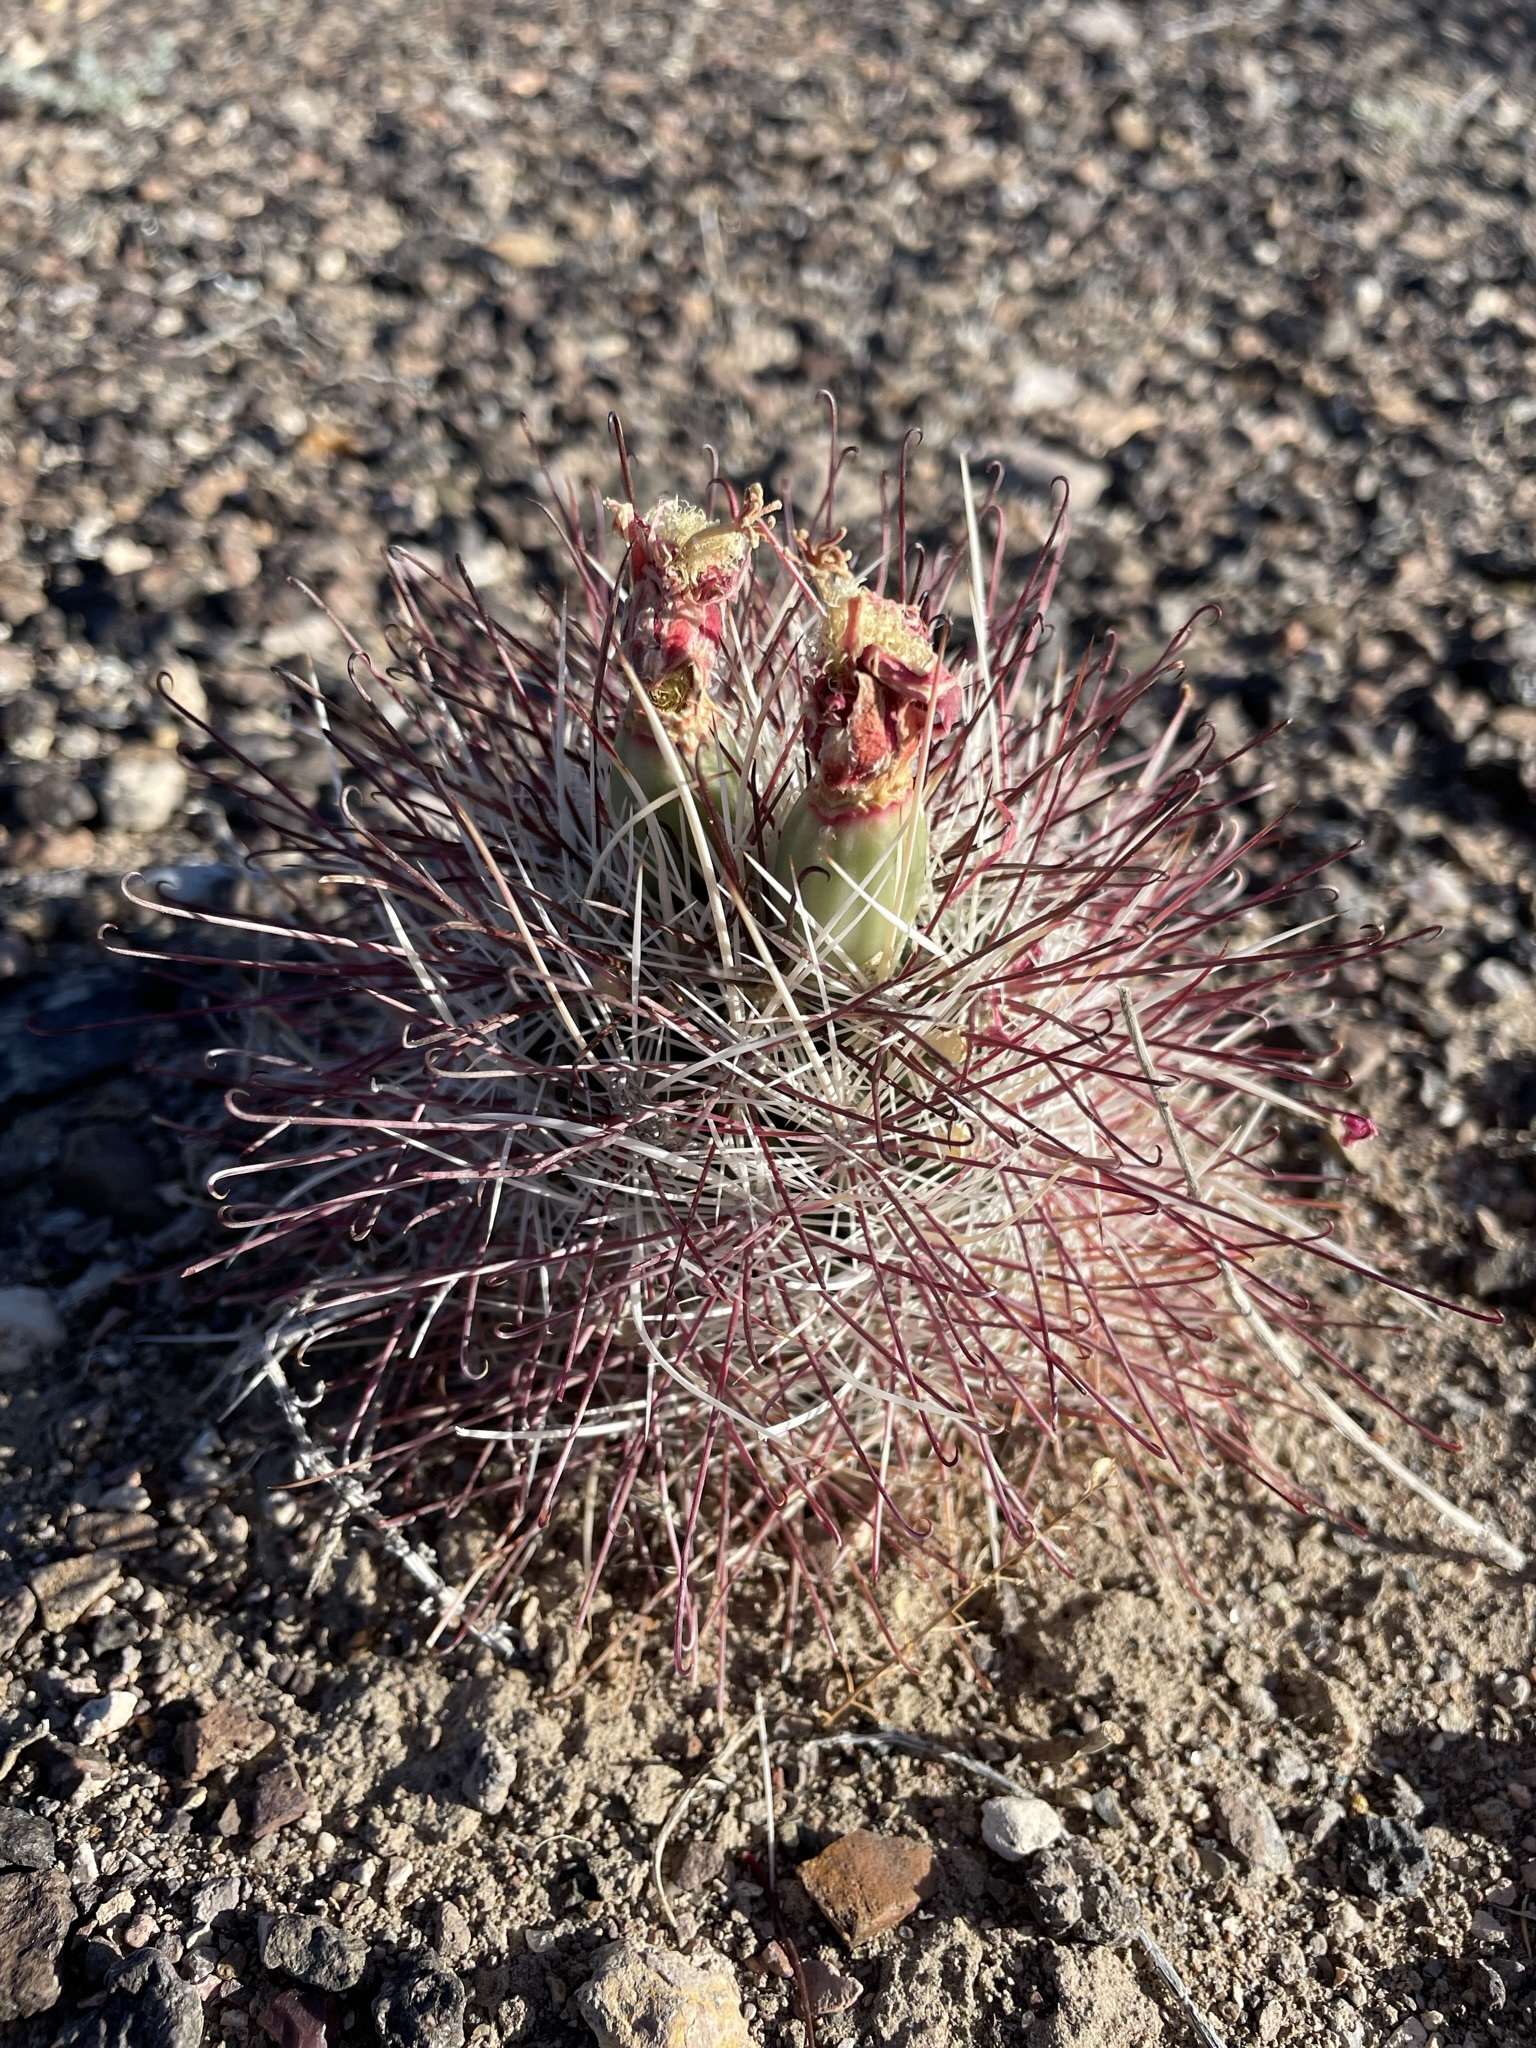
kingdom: Plantae
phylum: Tracheophyta
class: Magnoliopsida
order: Caryophyllales
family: Cactaceae
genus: Sclerocactus
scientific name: Sclerocactus polyancistrus
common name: Mohave fishhook cactus
